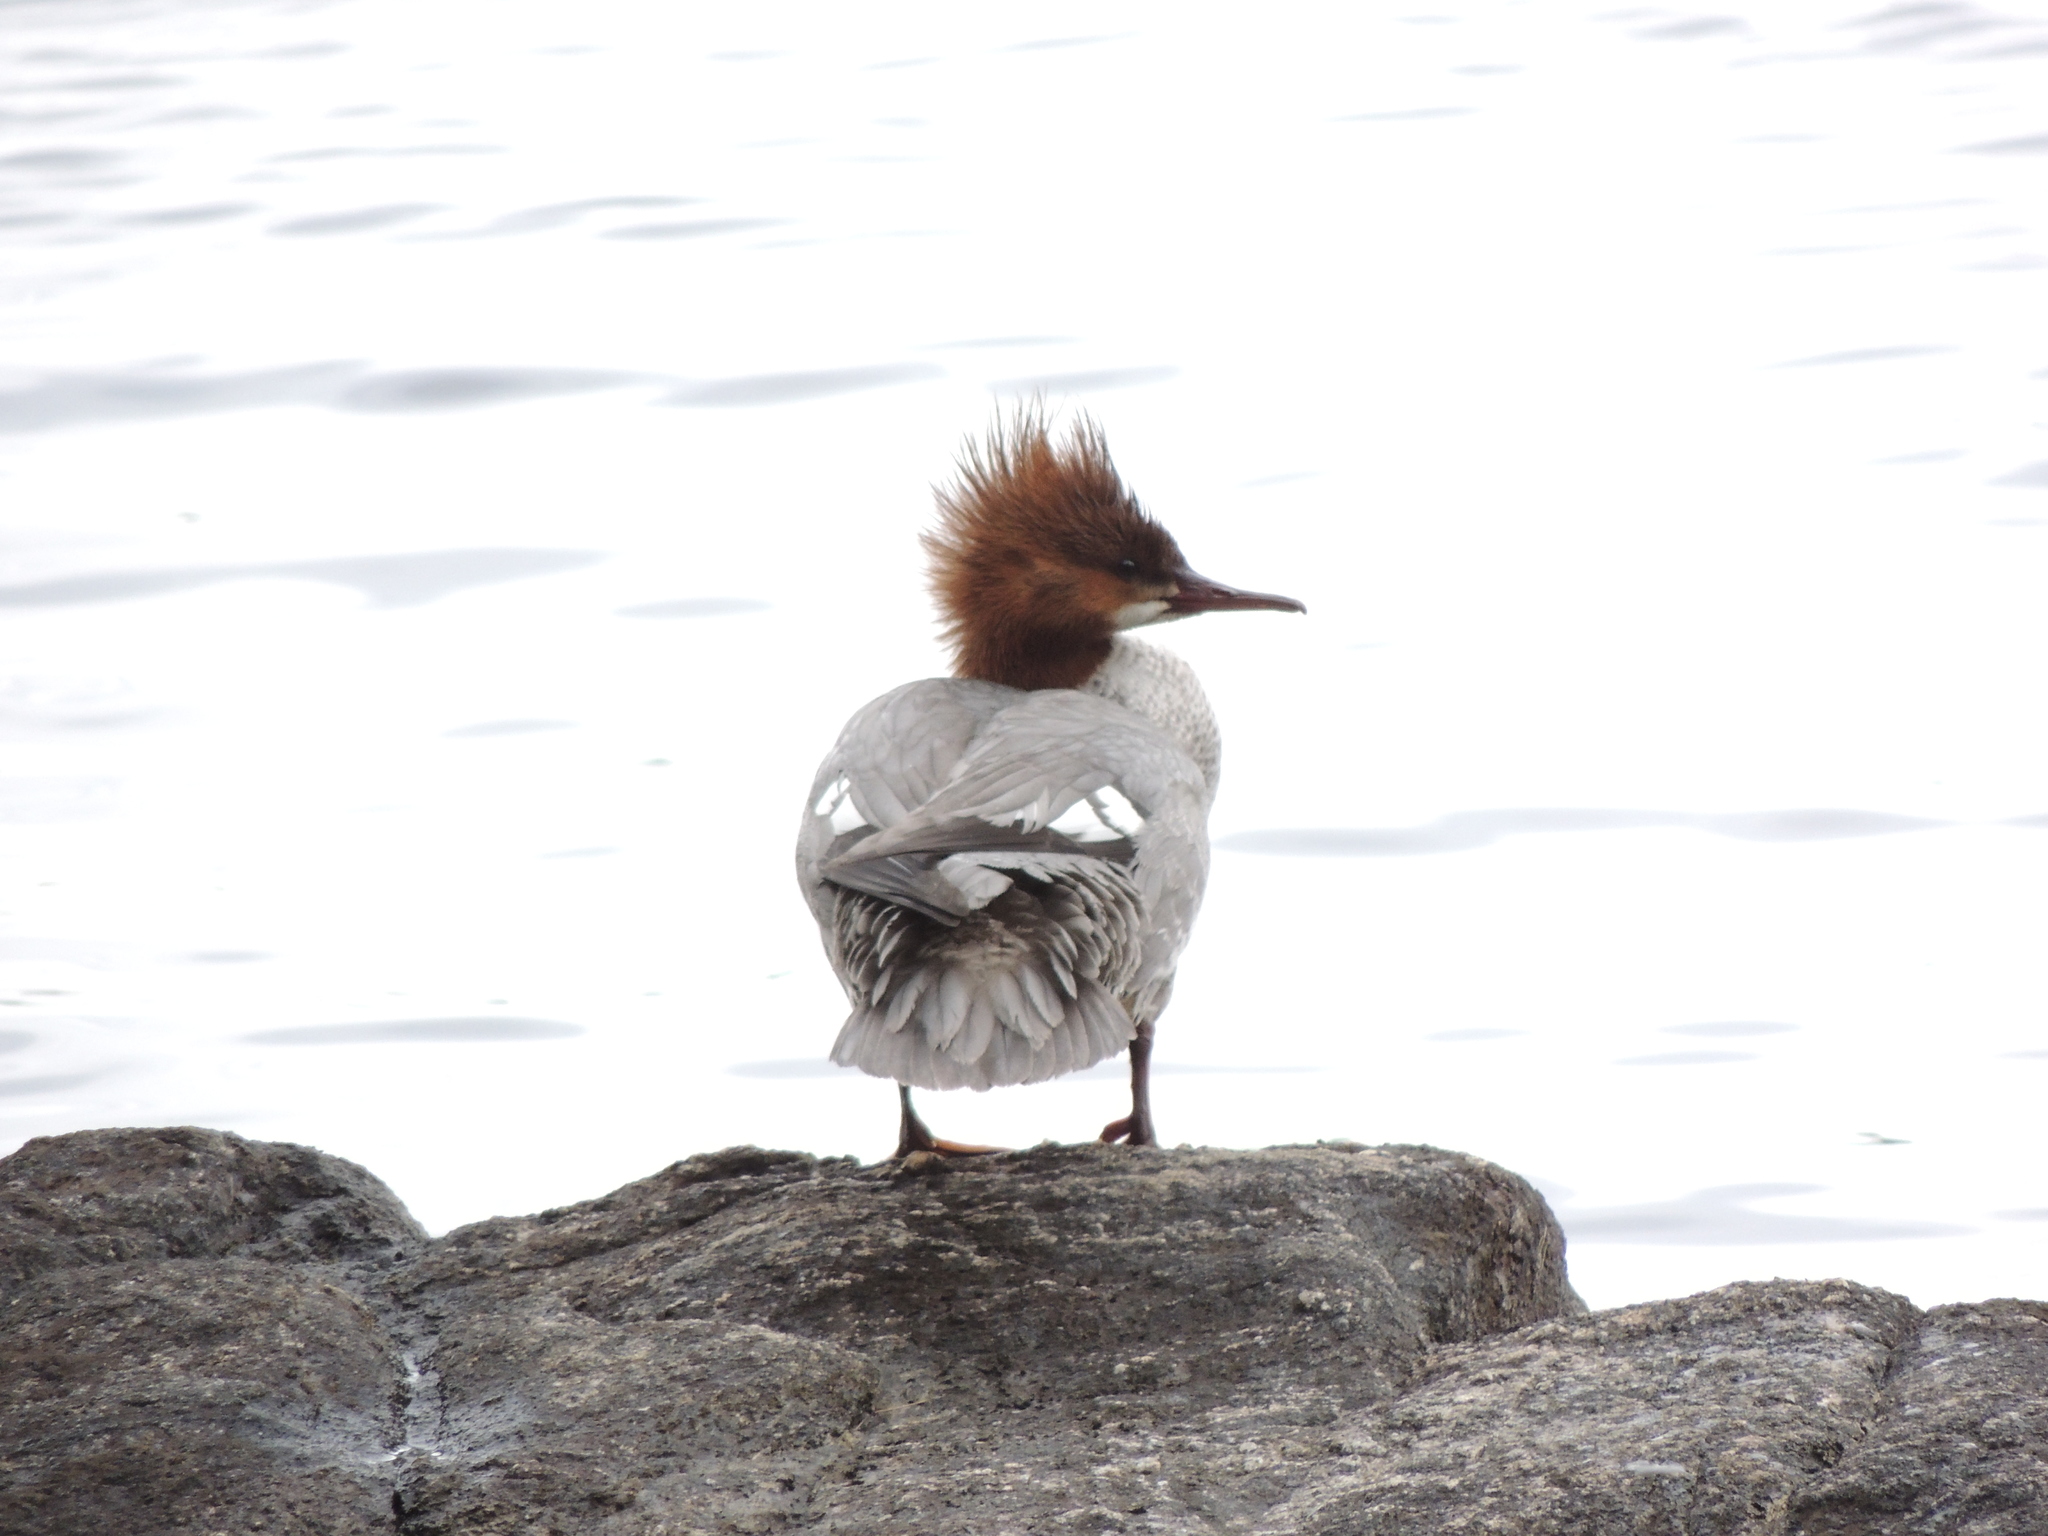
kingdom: Animalia
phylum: Chordata
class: Aves
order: Anseriformes
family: Anatidae
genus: Mergus
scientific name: Mergus merganser
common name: Common merganser
